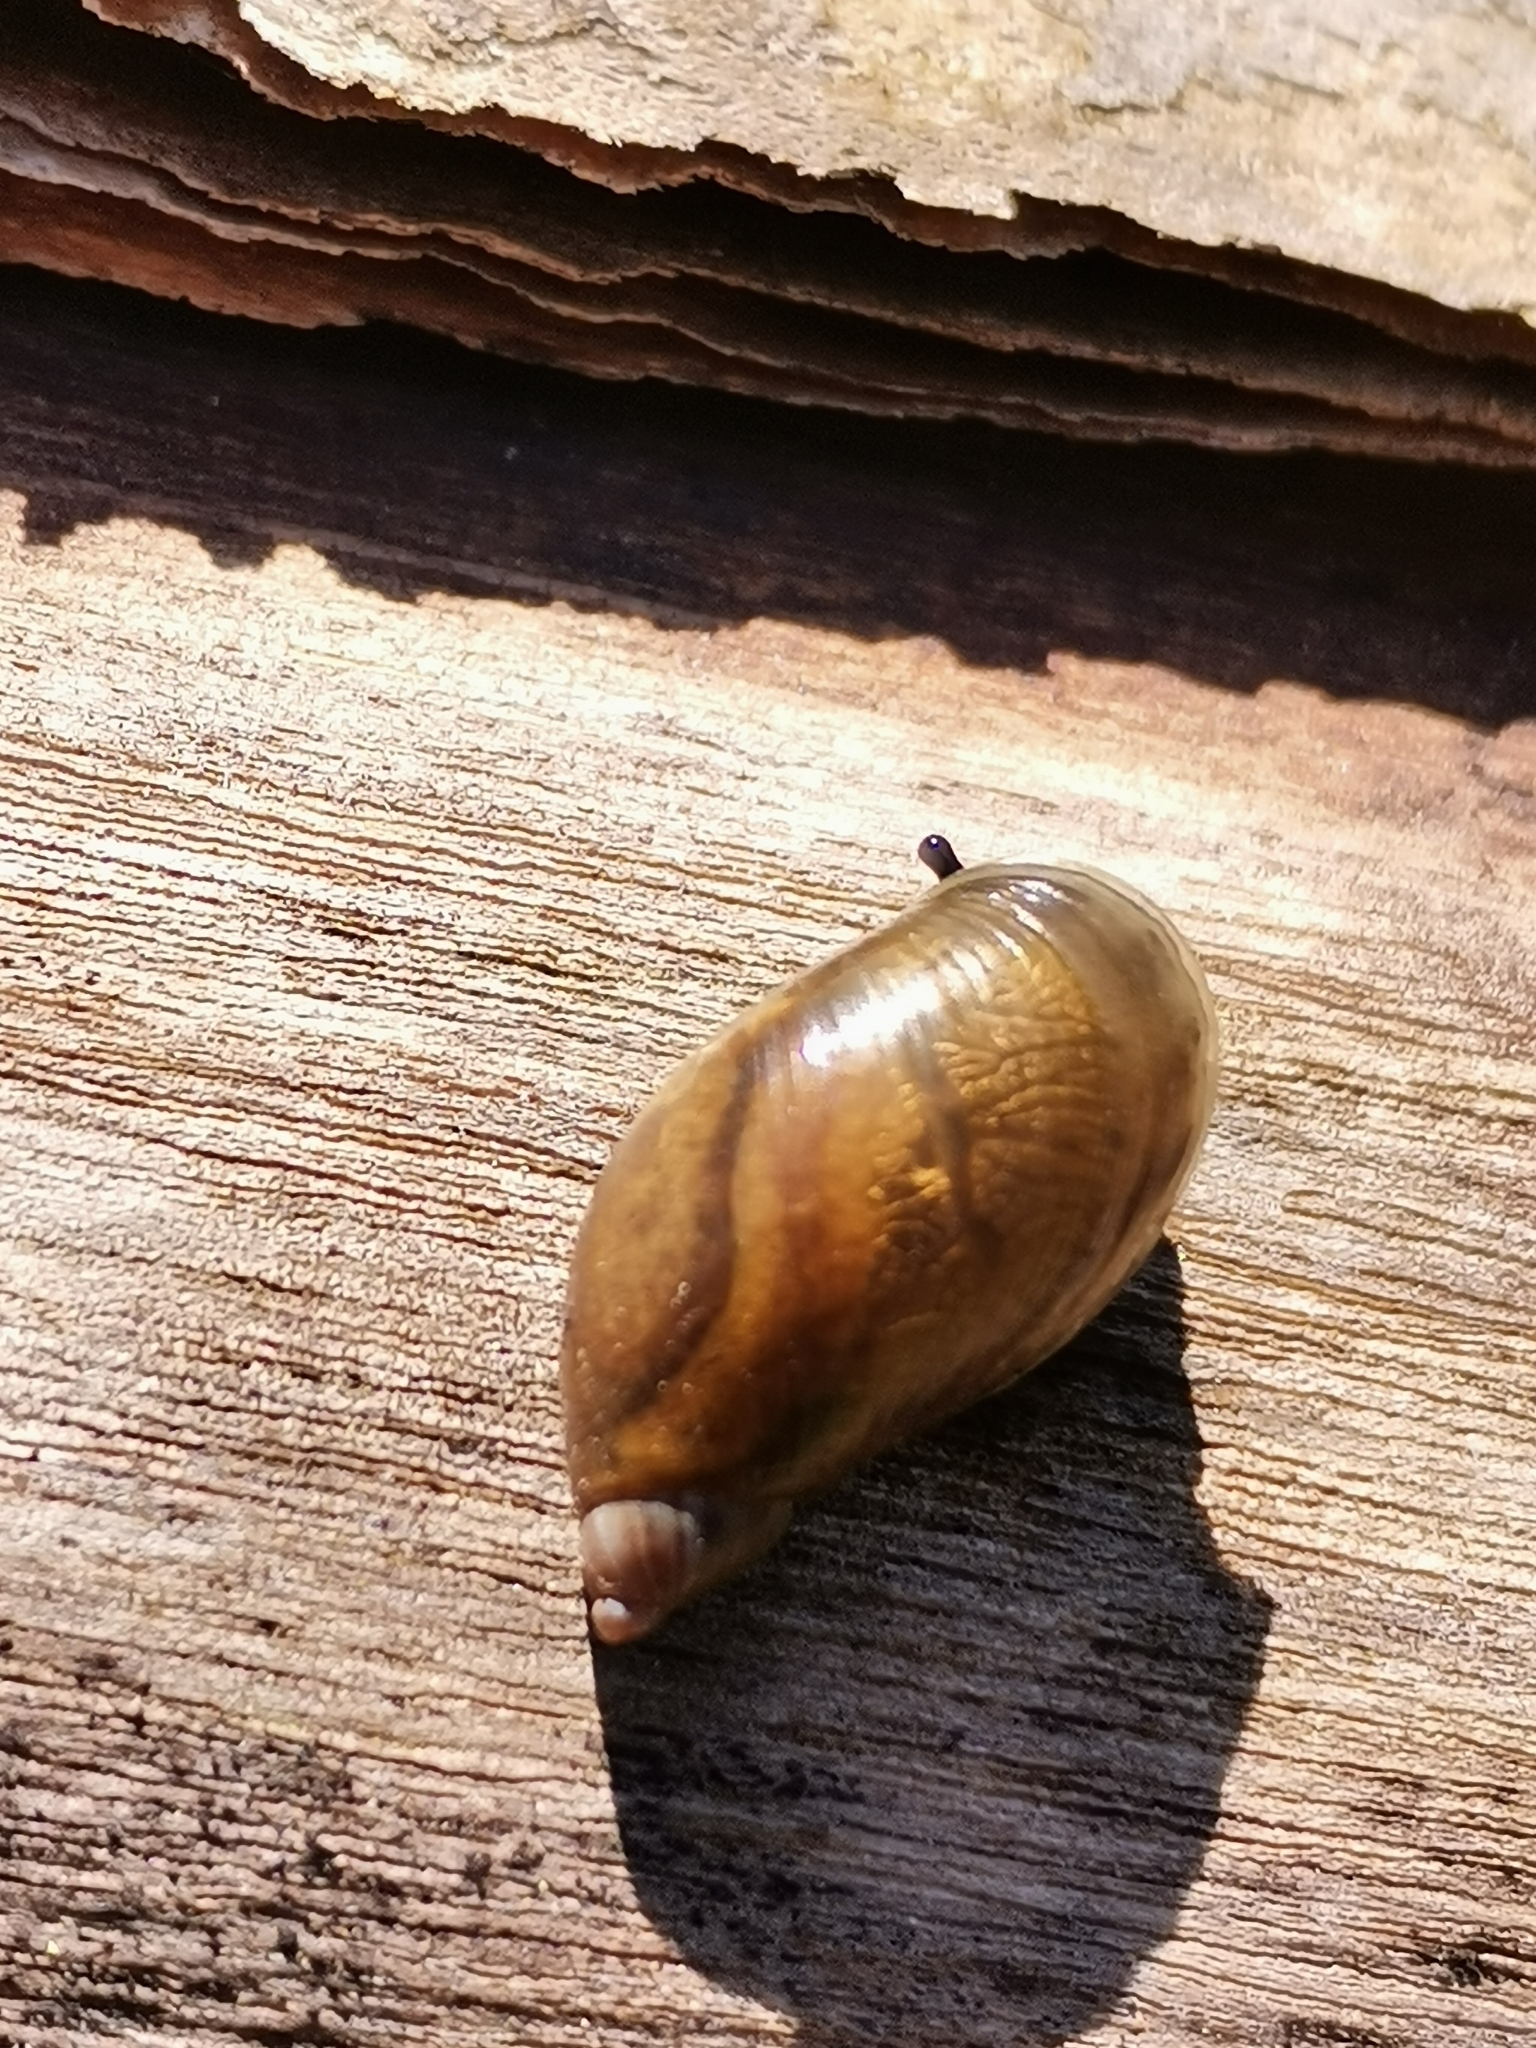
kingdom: Animalia
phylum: Mollusca
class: Gastropoda
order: Stylommatophora
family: Succineidae
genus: Succinea
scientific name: Succinea putris
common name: European ambersnail
